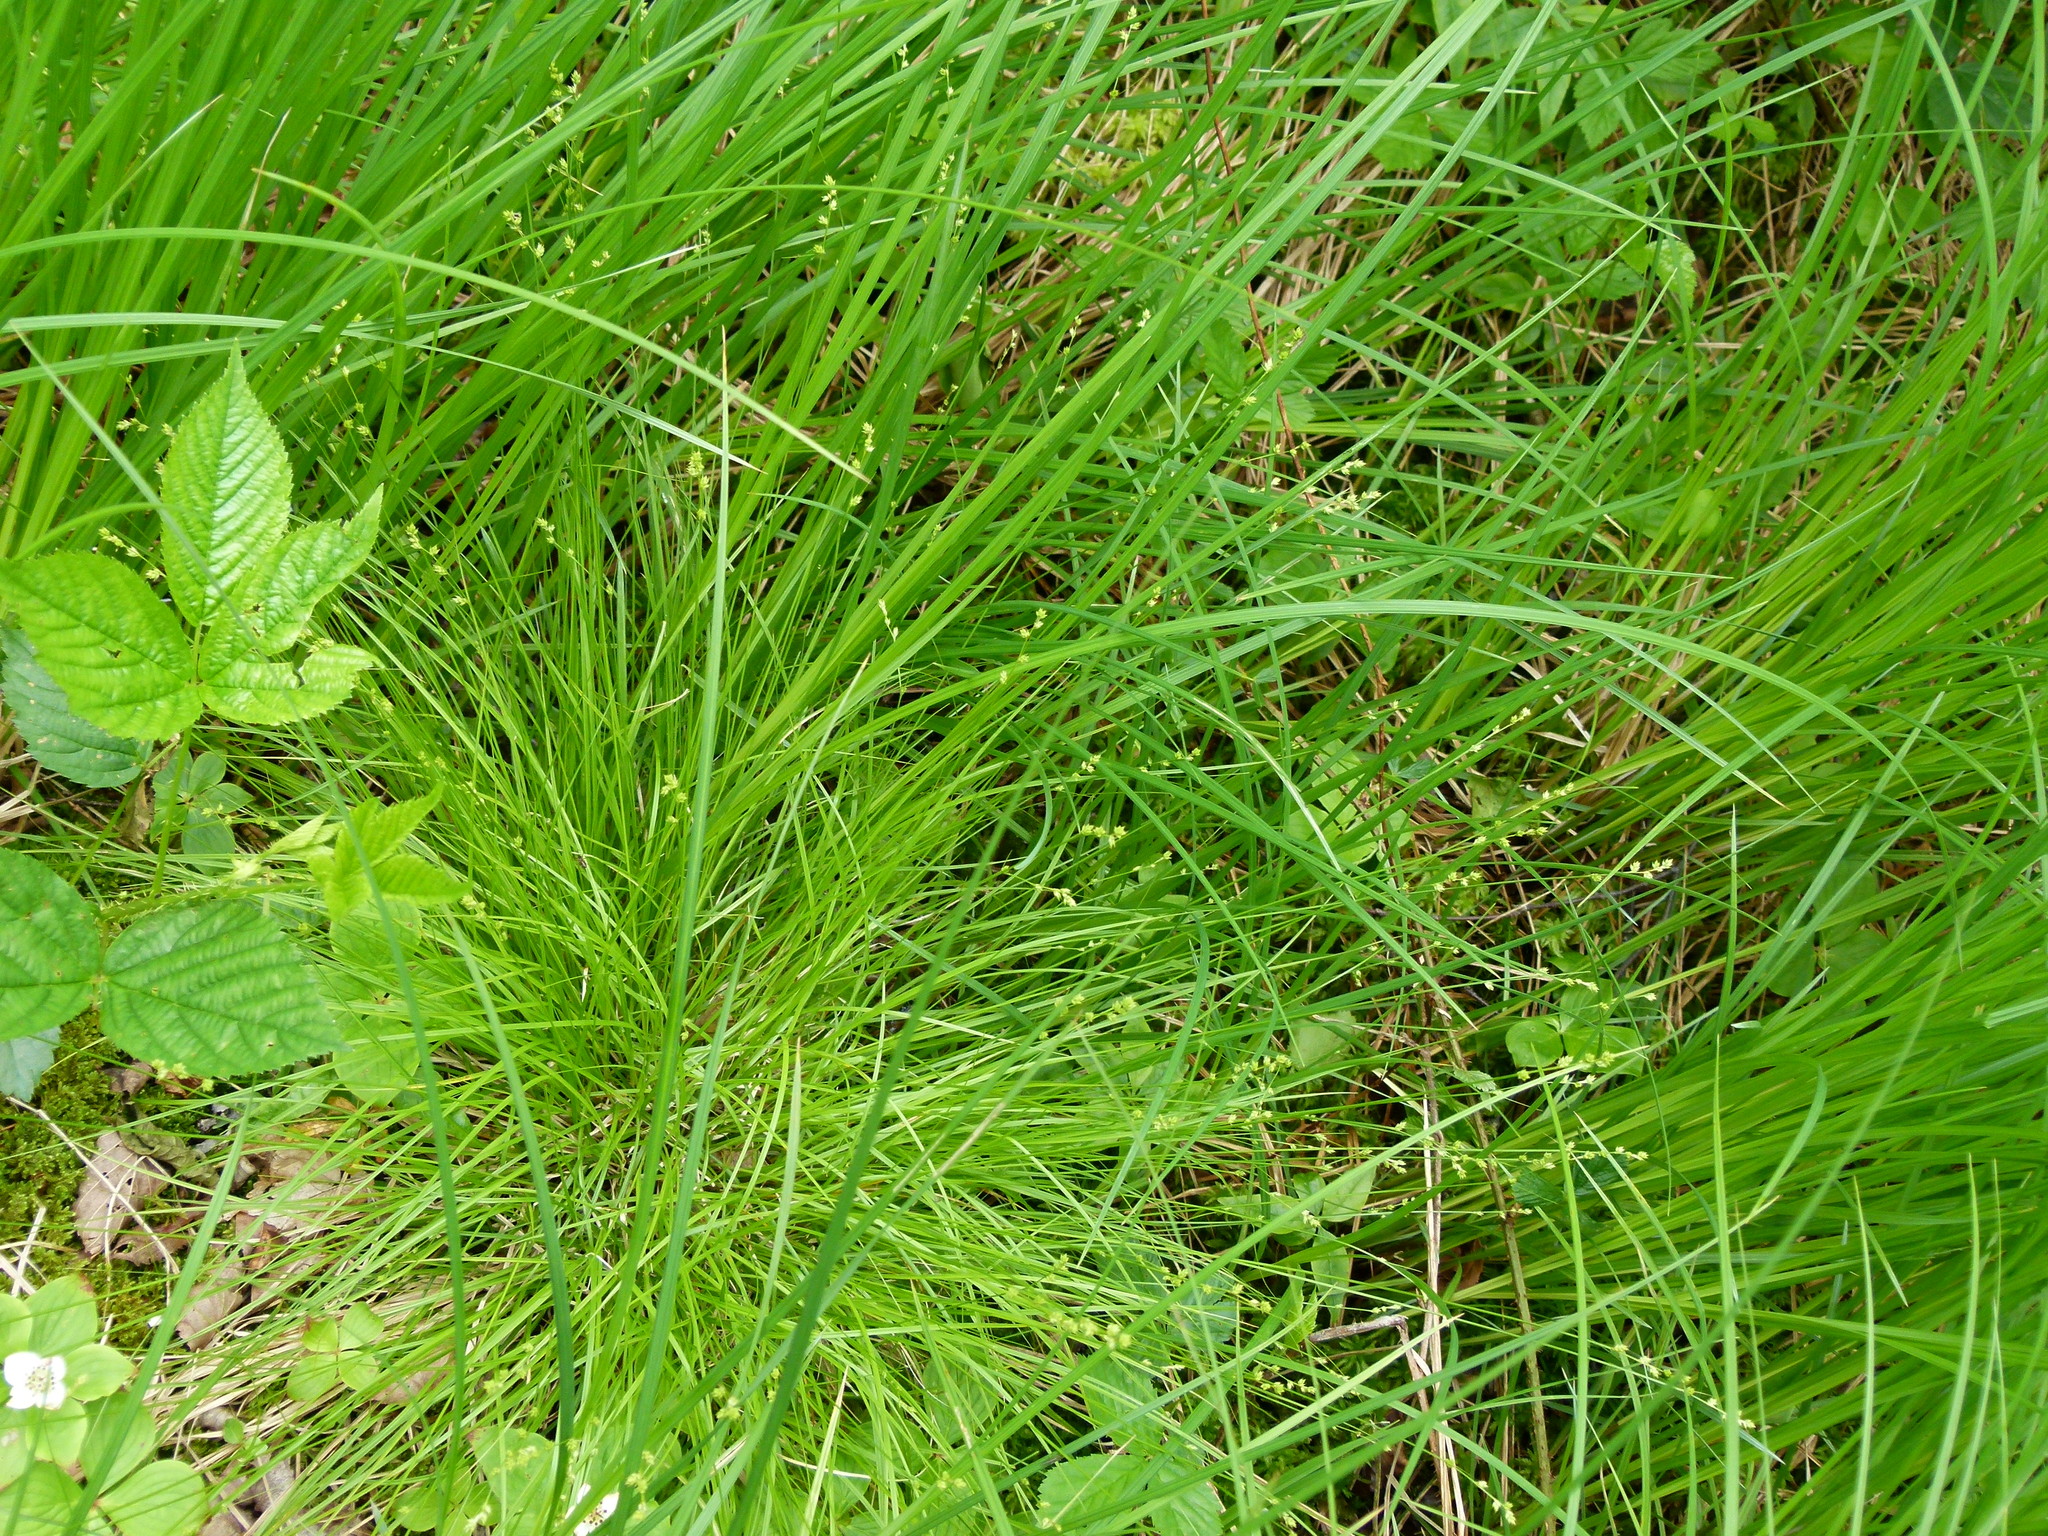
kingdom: Plantae
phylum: Tracheophyta
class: Liliopsida
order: Poales
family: Cyperaceae
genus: Carex
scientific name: Carex brunnescens
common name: Brown sedge
